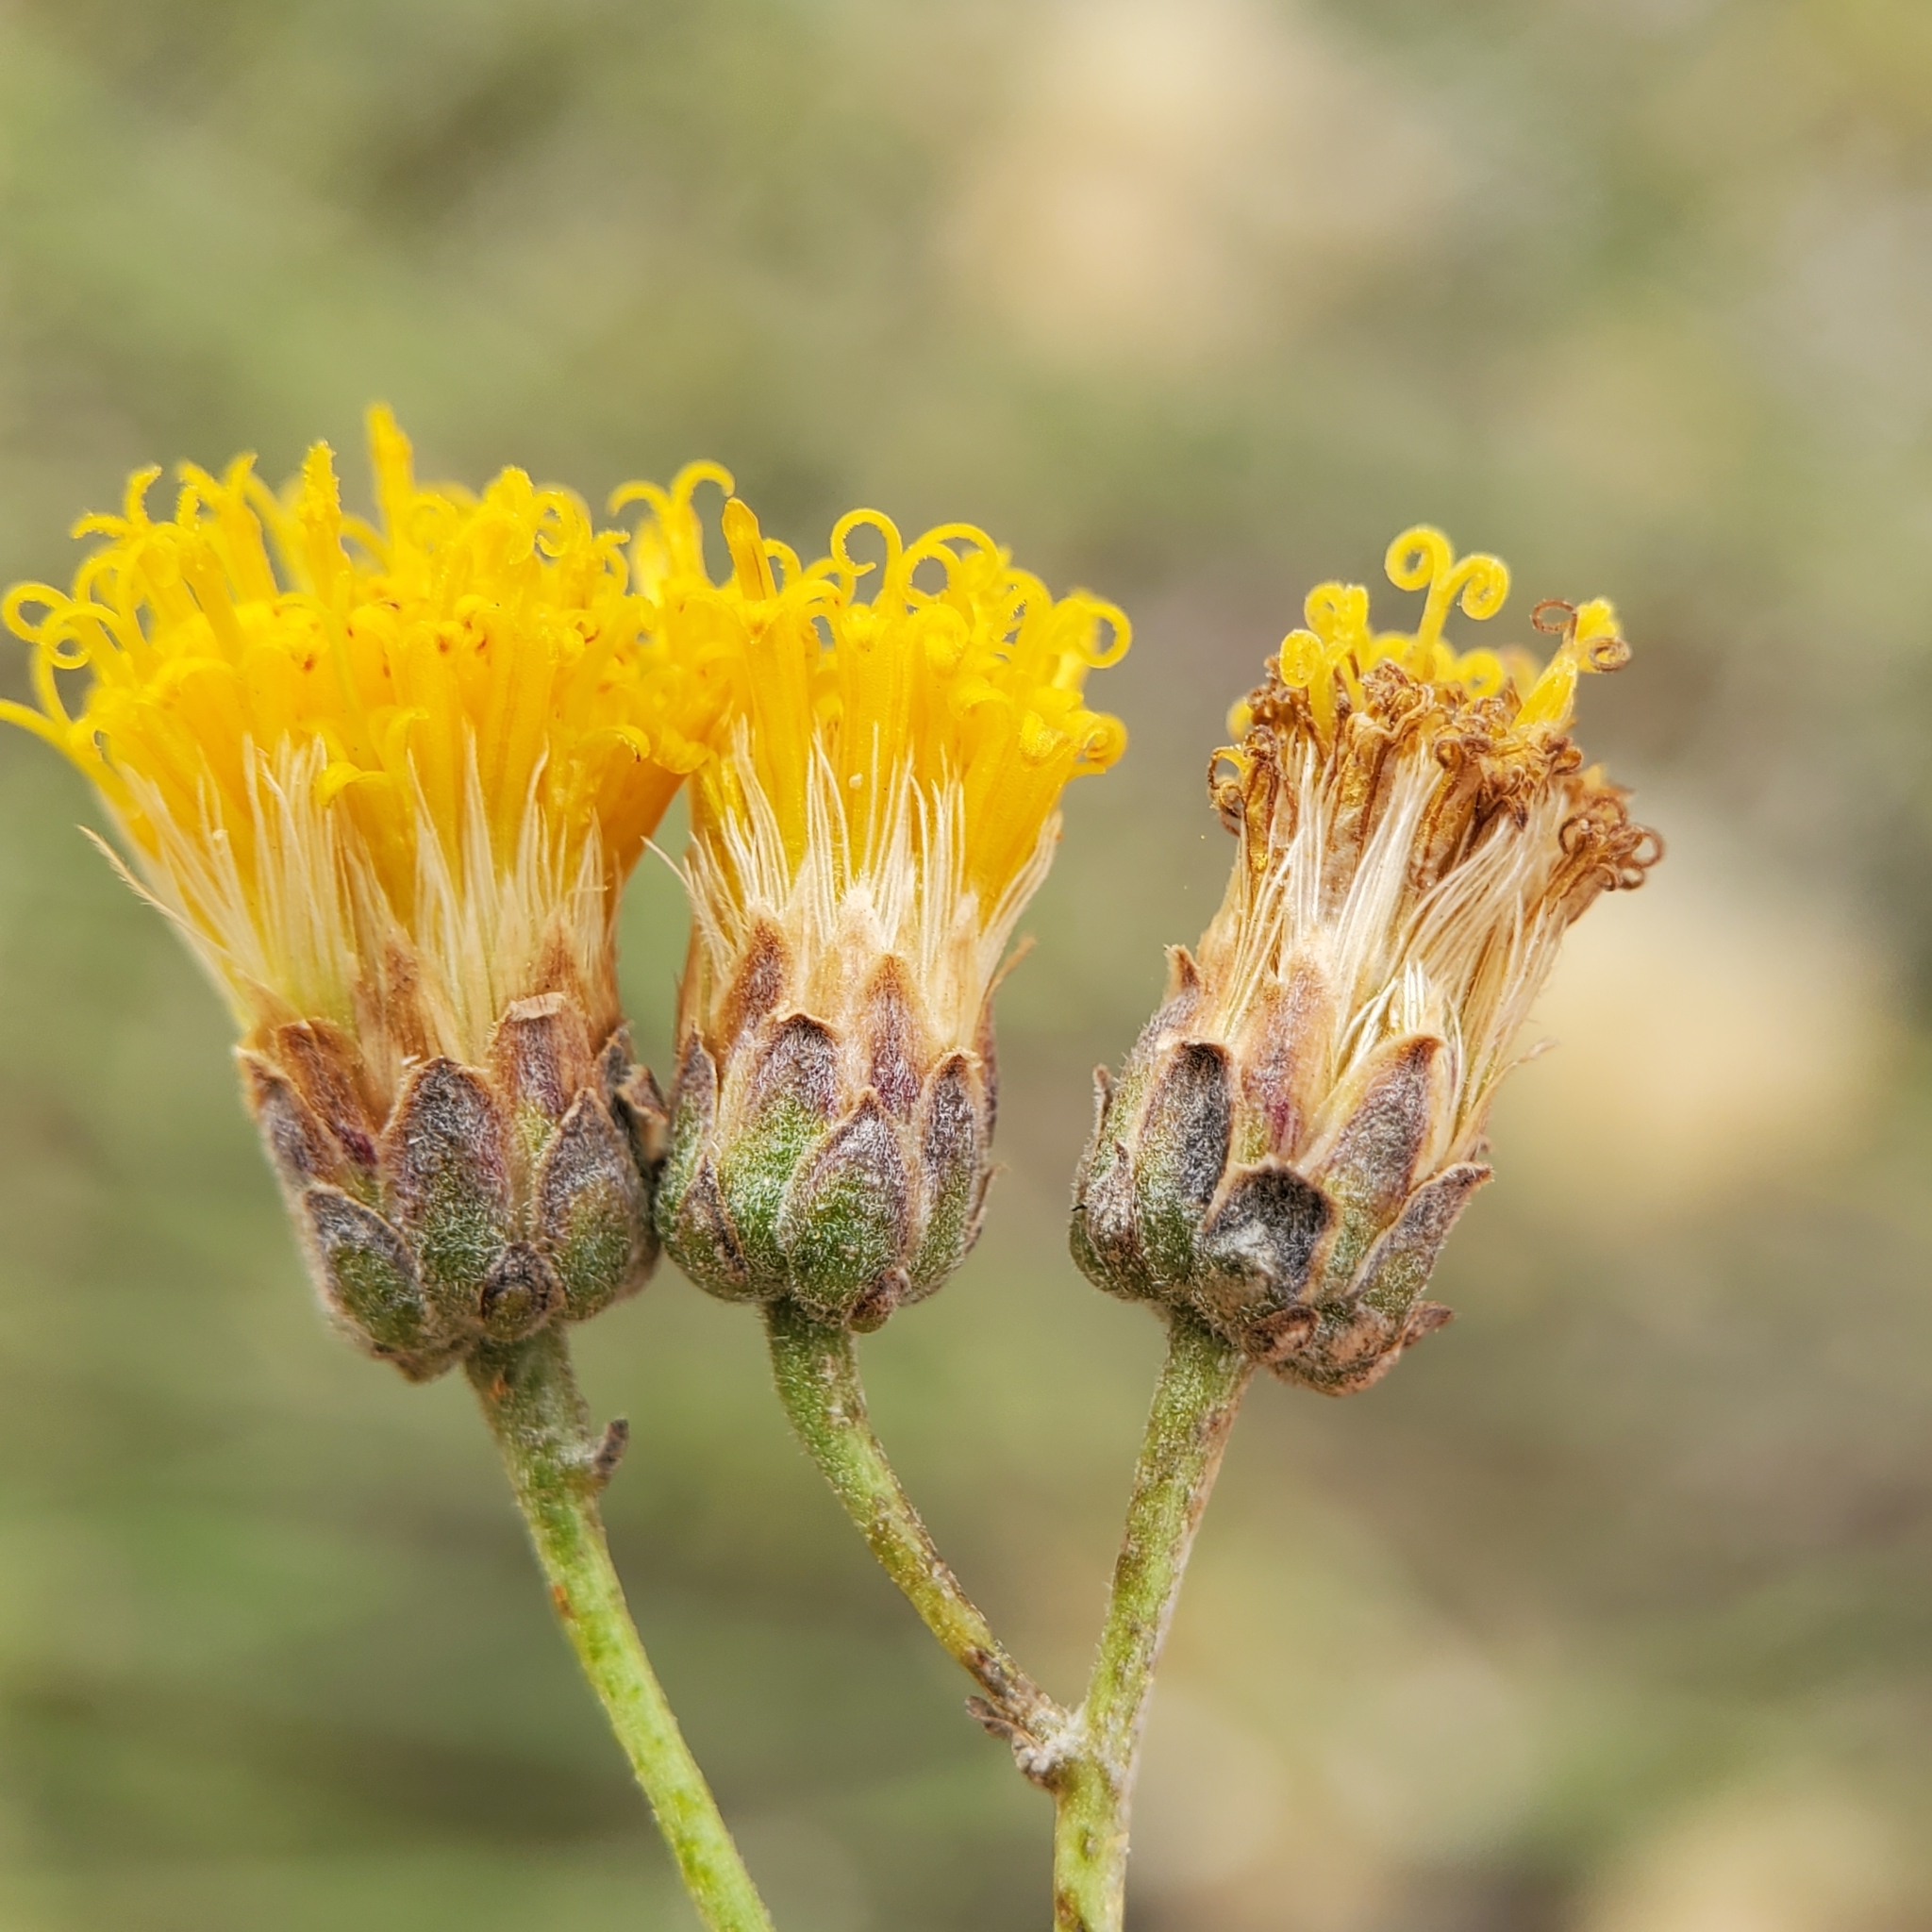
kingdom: Plantae
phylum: Tracheophyta
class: Magnoliopsida
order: Asterales
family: Asteraceae
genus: Bebbia
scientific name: Bebbia juncea
